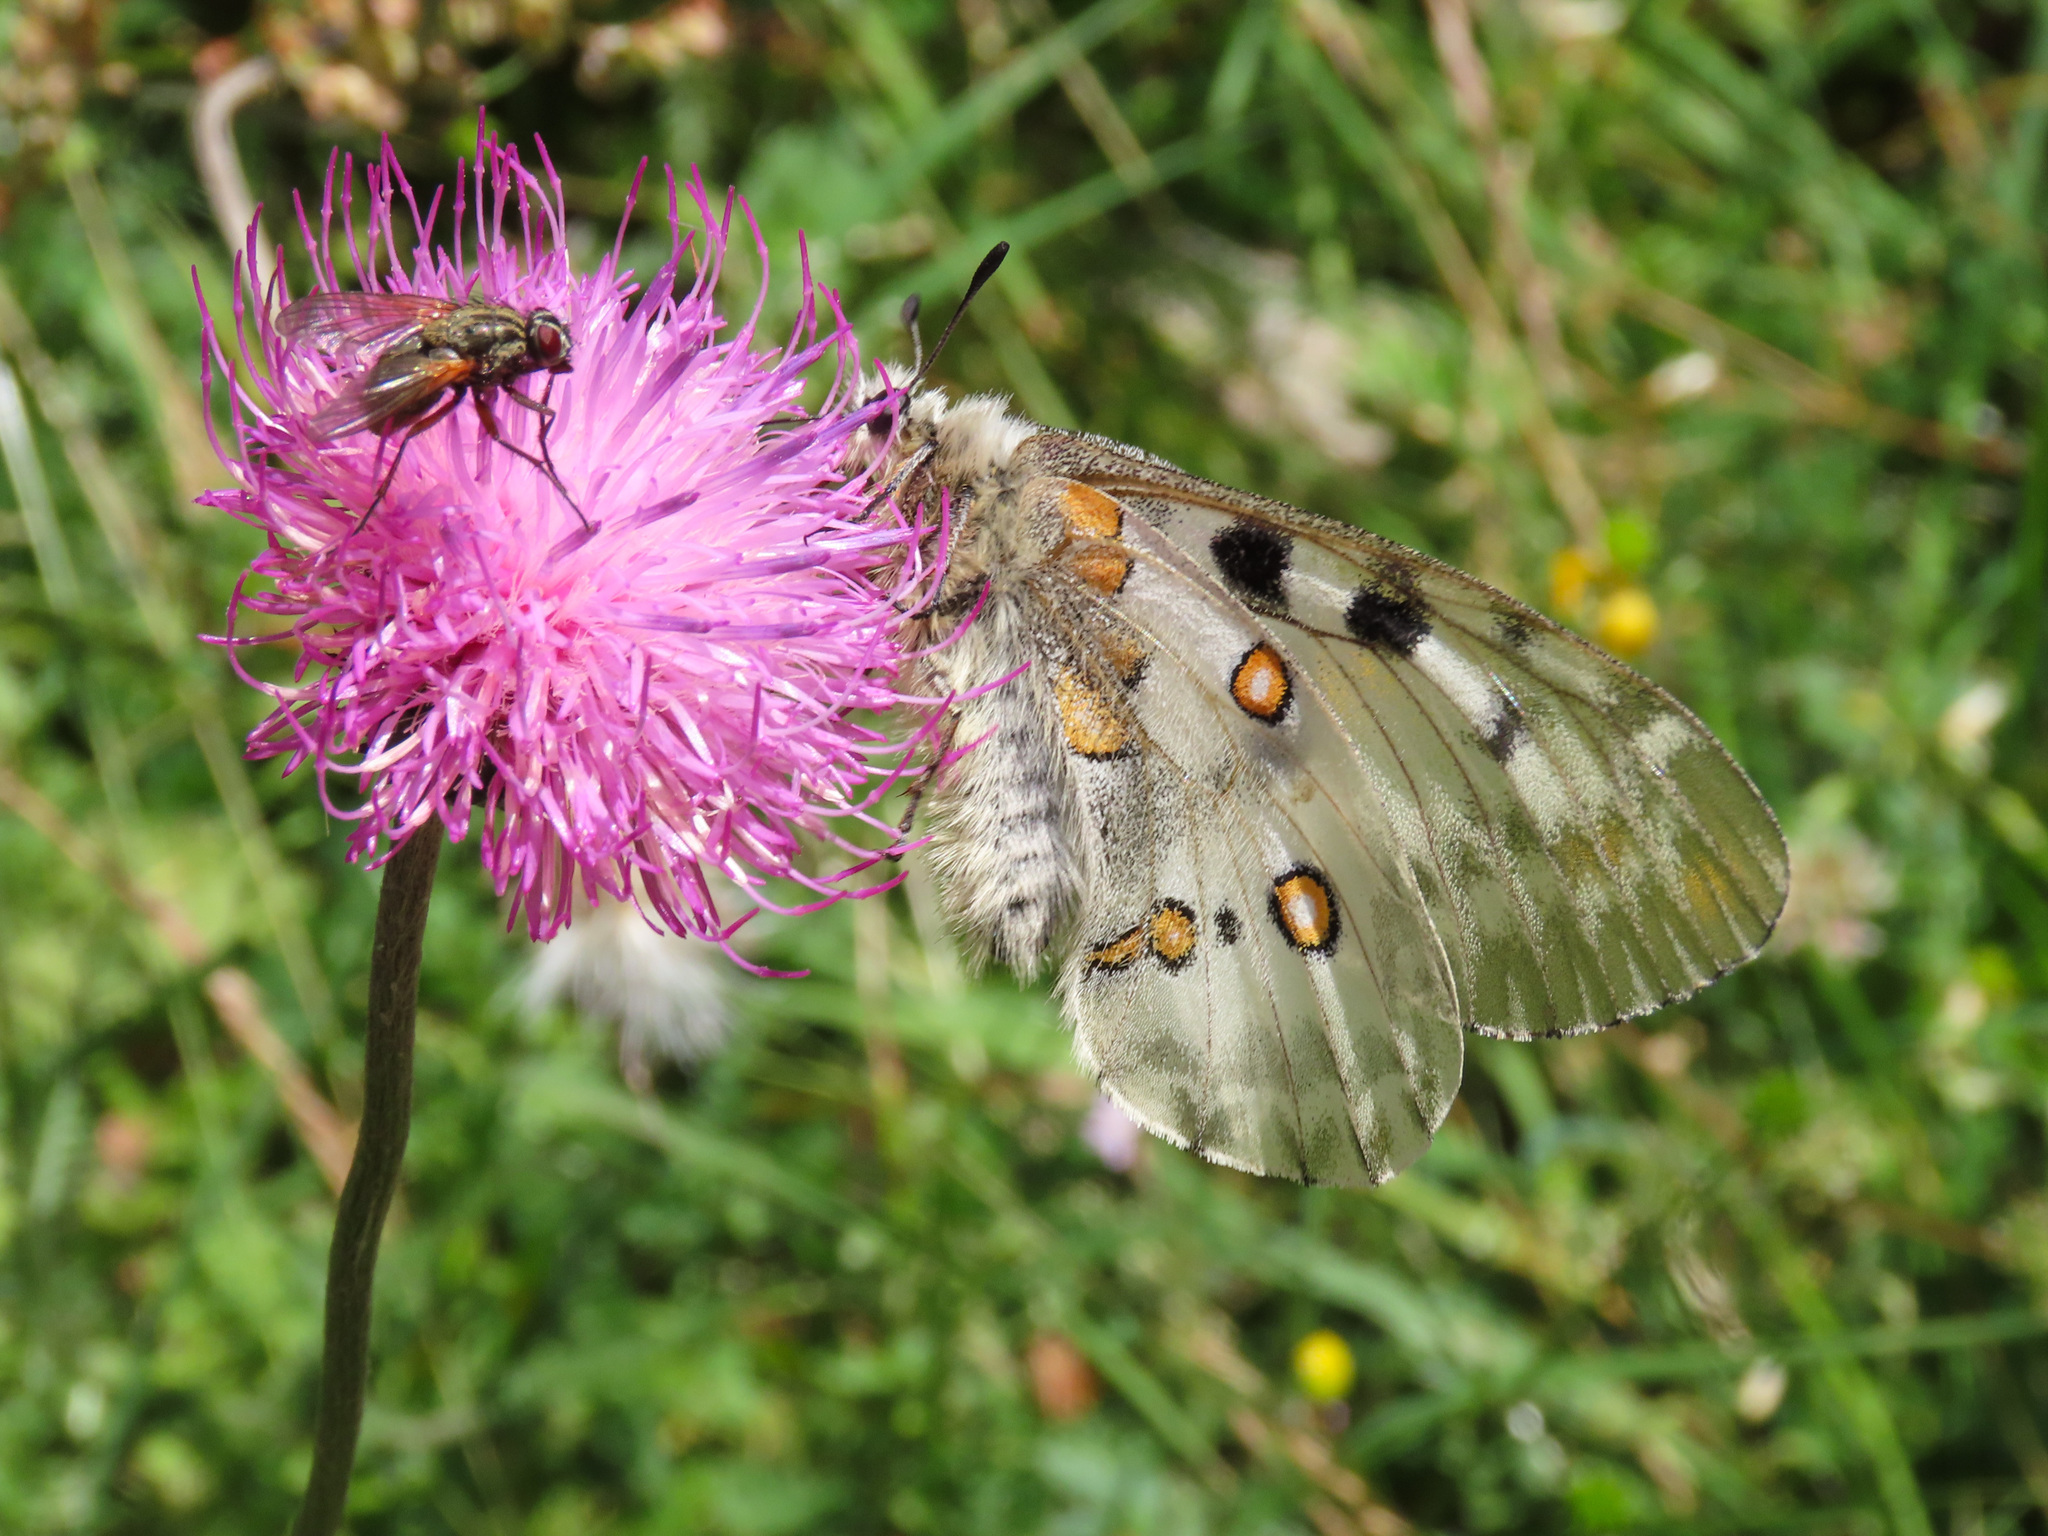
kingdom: Animalia
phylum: Arthropoda
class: Insecta
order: Lepidoptera
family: Papilionidae
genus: Parnassius
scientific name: Parnassius apollo
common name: Apollo
